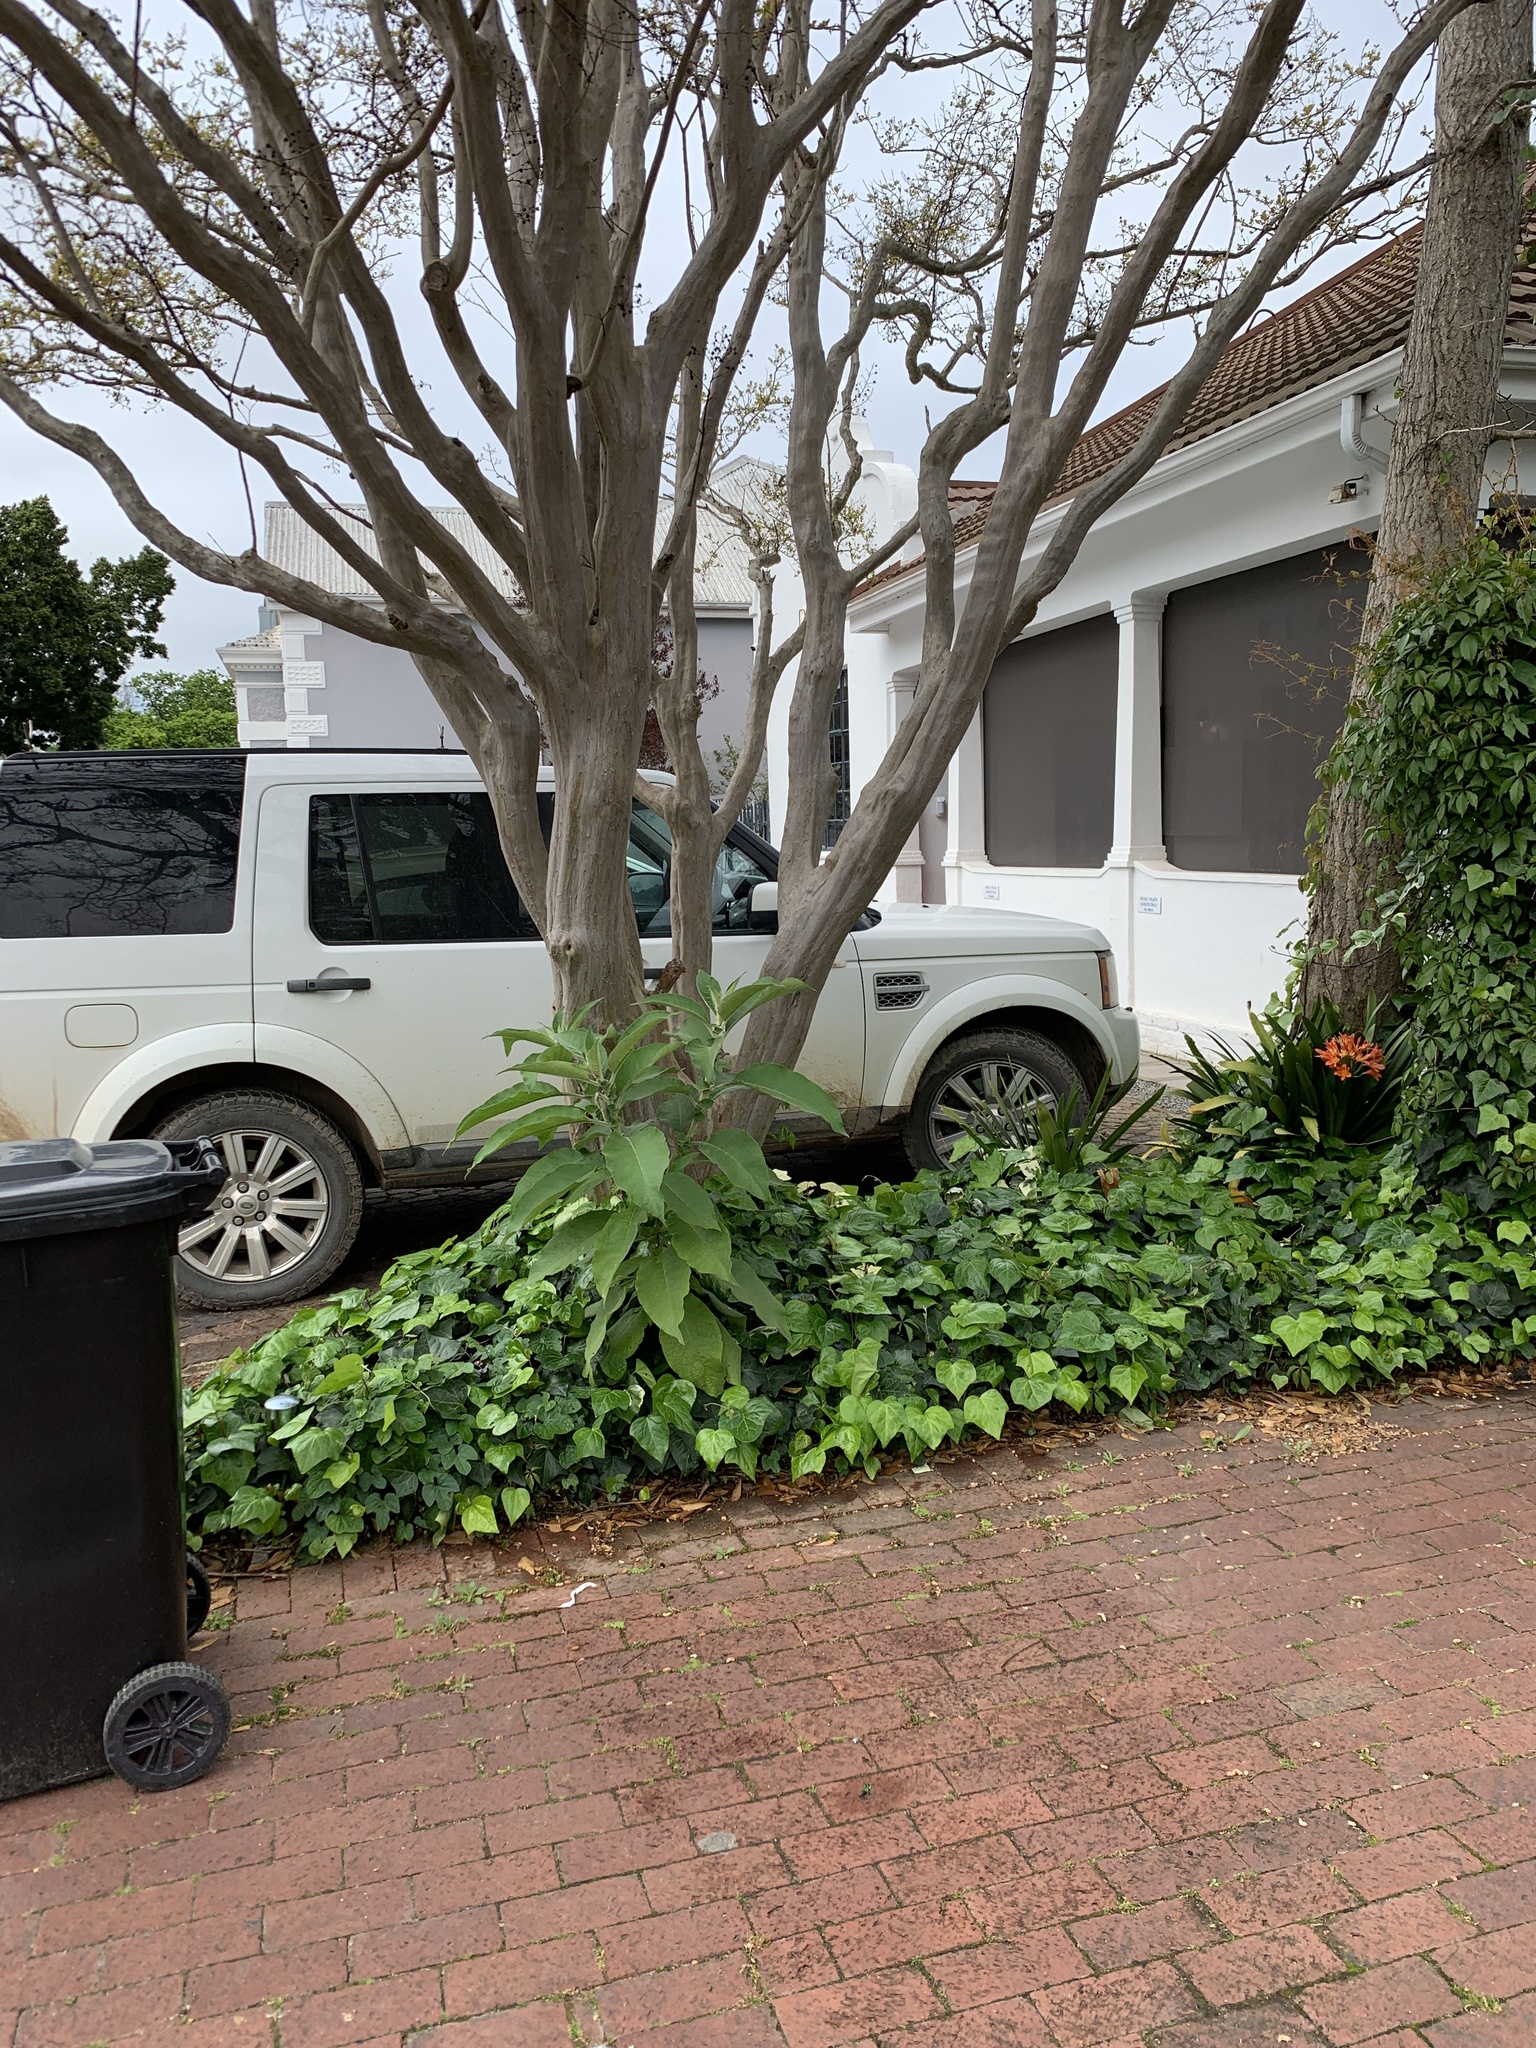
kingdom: Plantae
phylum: Tracheophyta
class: Magnoliopsida
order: Solanales
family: Solanaceae
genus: Solanum
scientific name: Solanum mauritianum
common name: Earleaf nightshade
